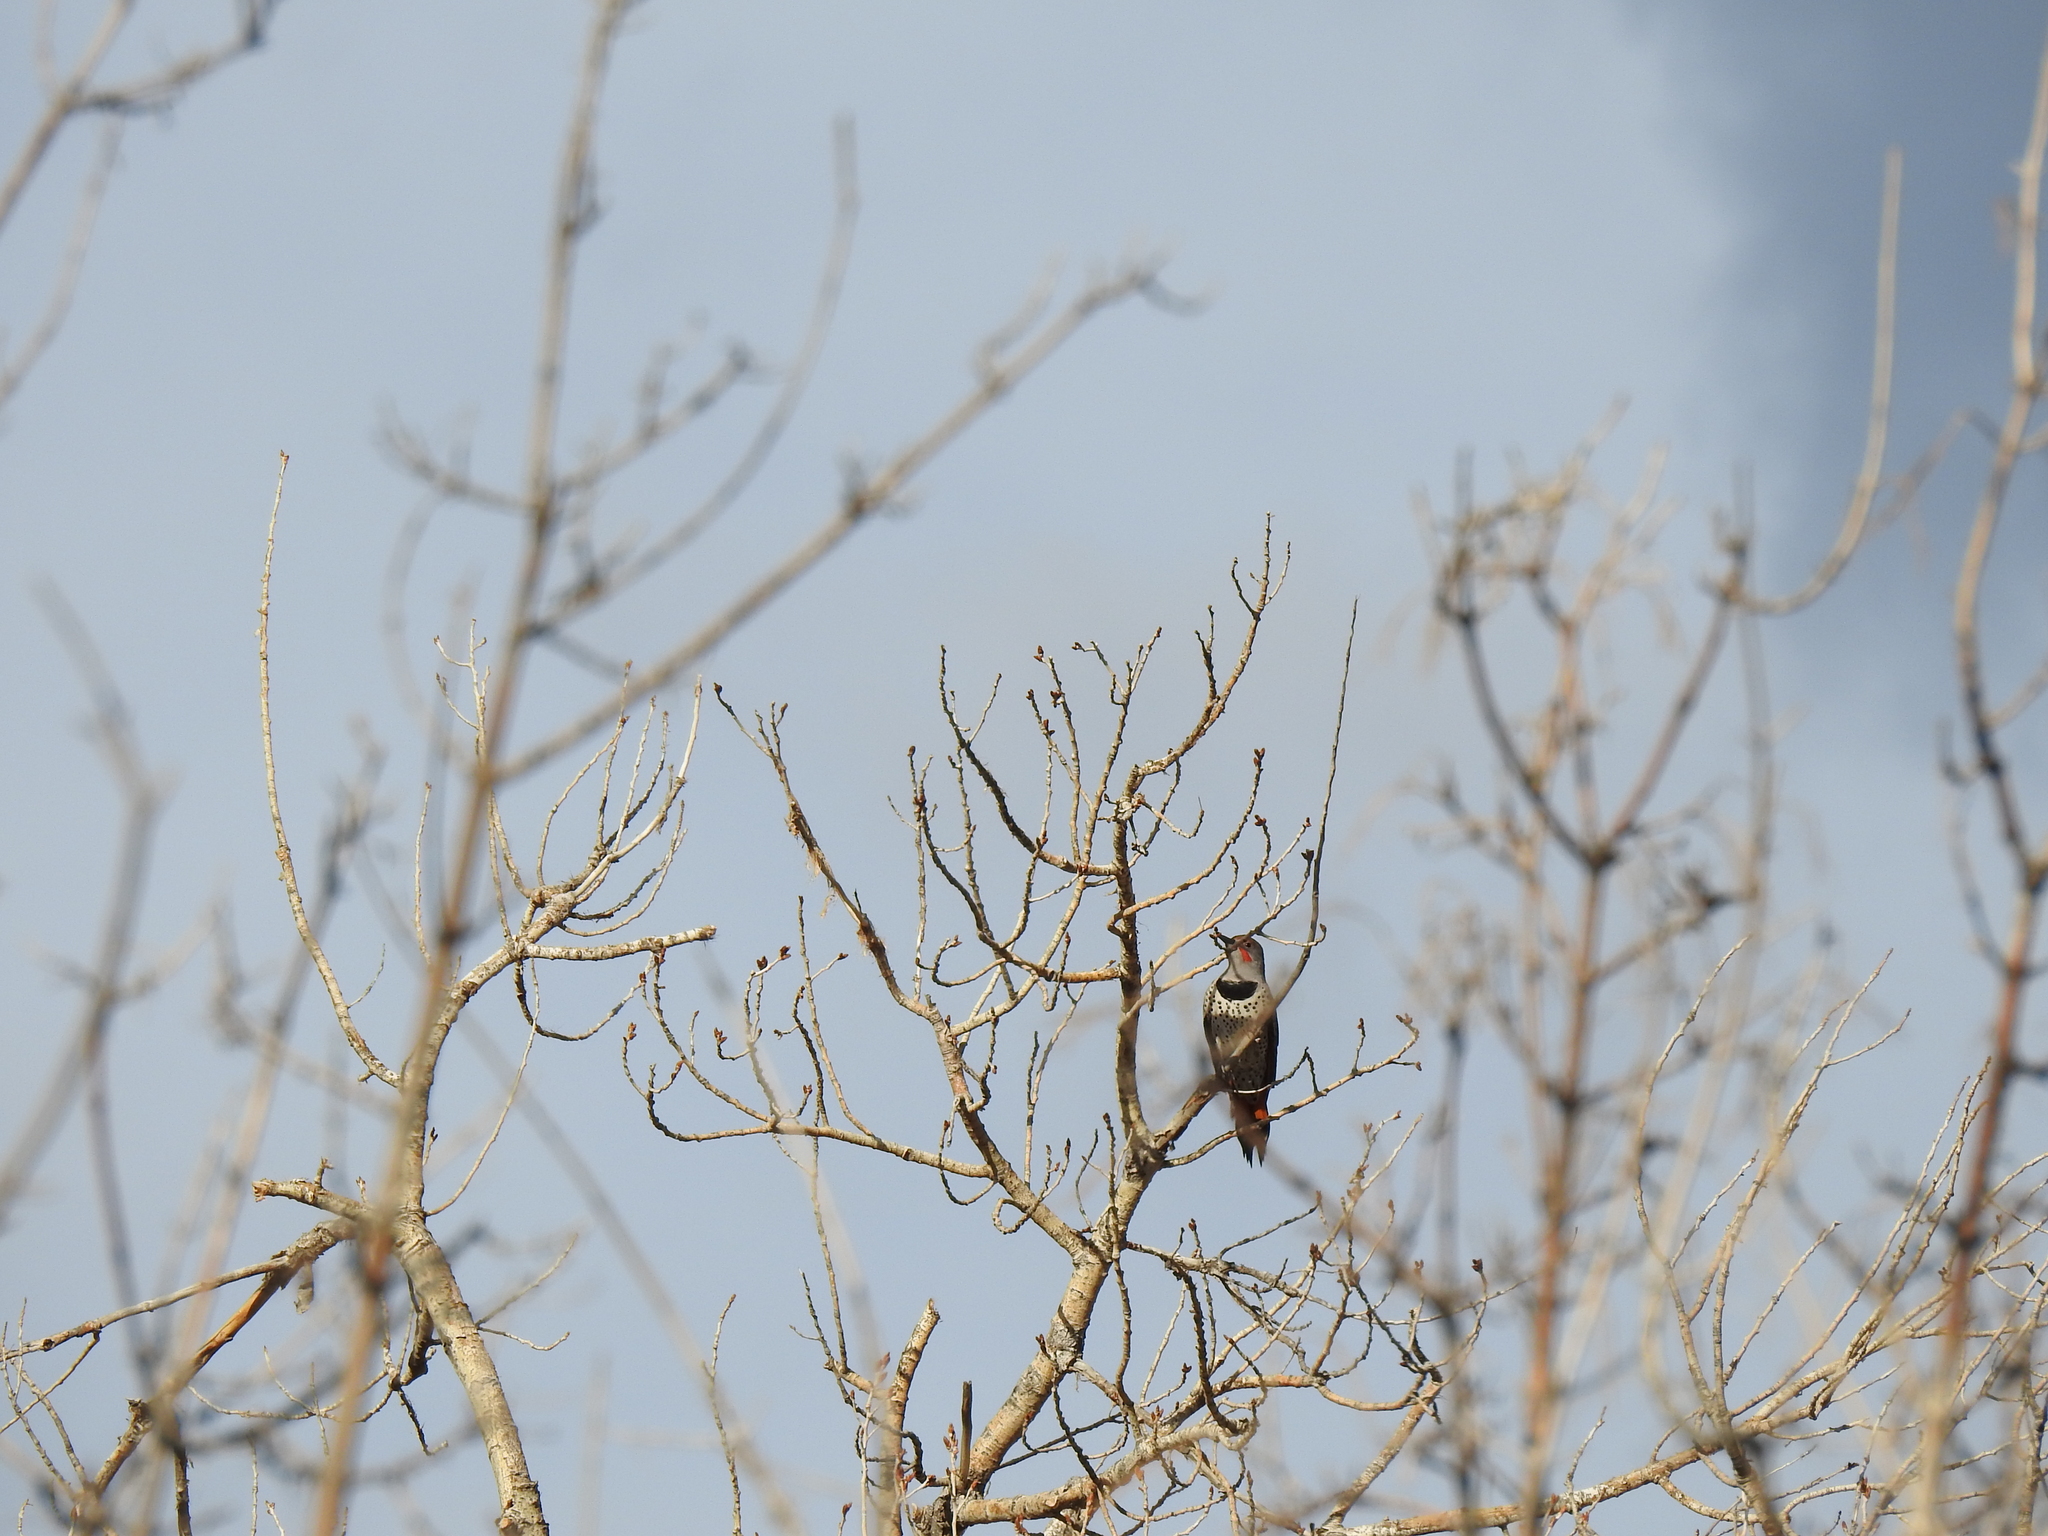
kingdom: Animalia
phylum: Chordata
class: Aves
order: Piciformes
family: Picidae
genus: Colaptes
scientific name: Colaptes auratus
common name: Northern flicker
